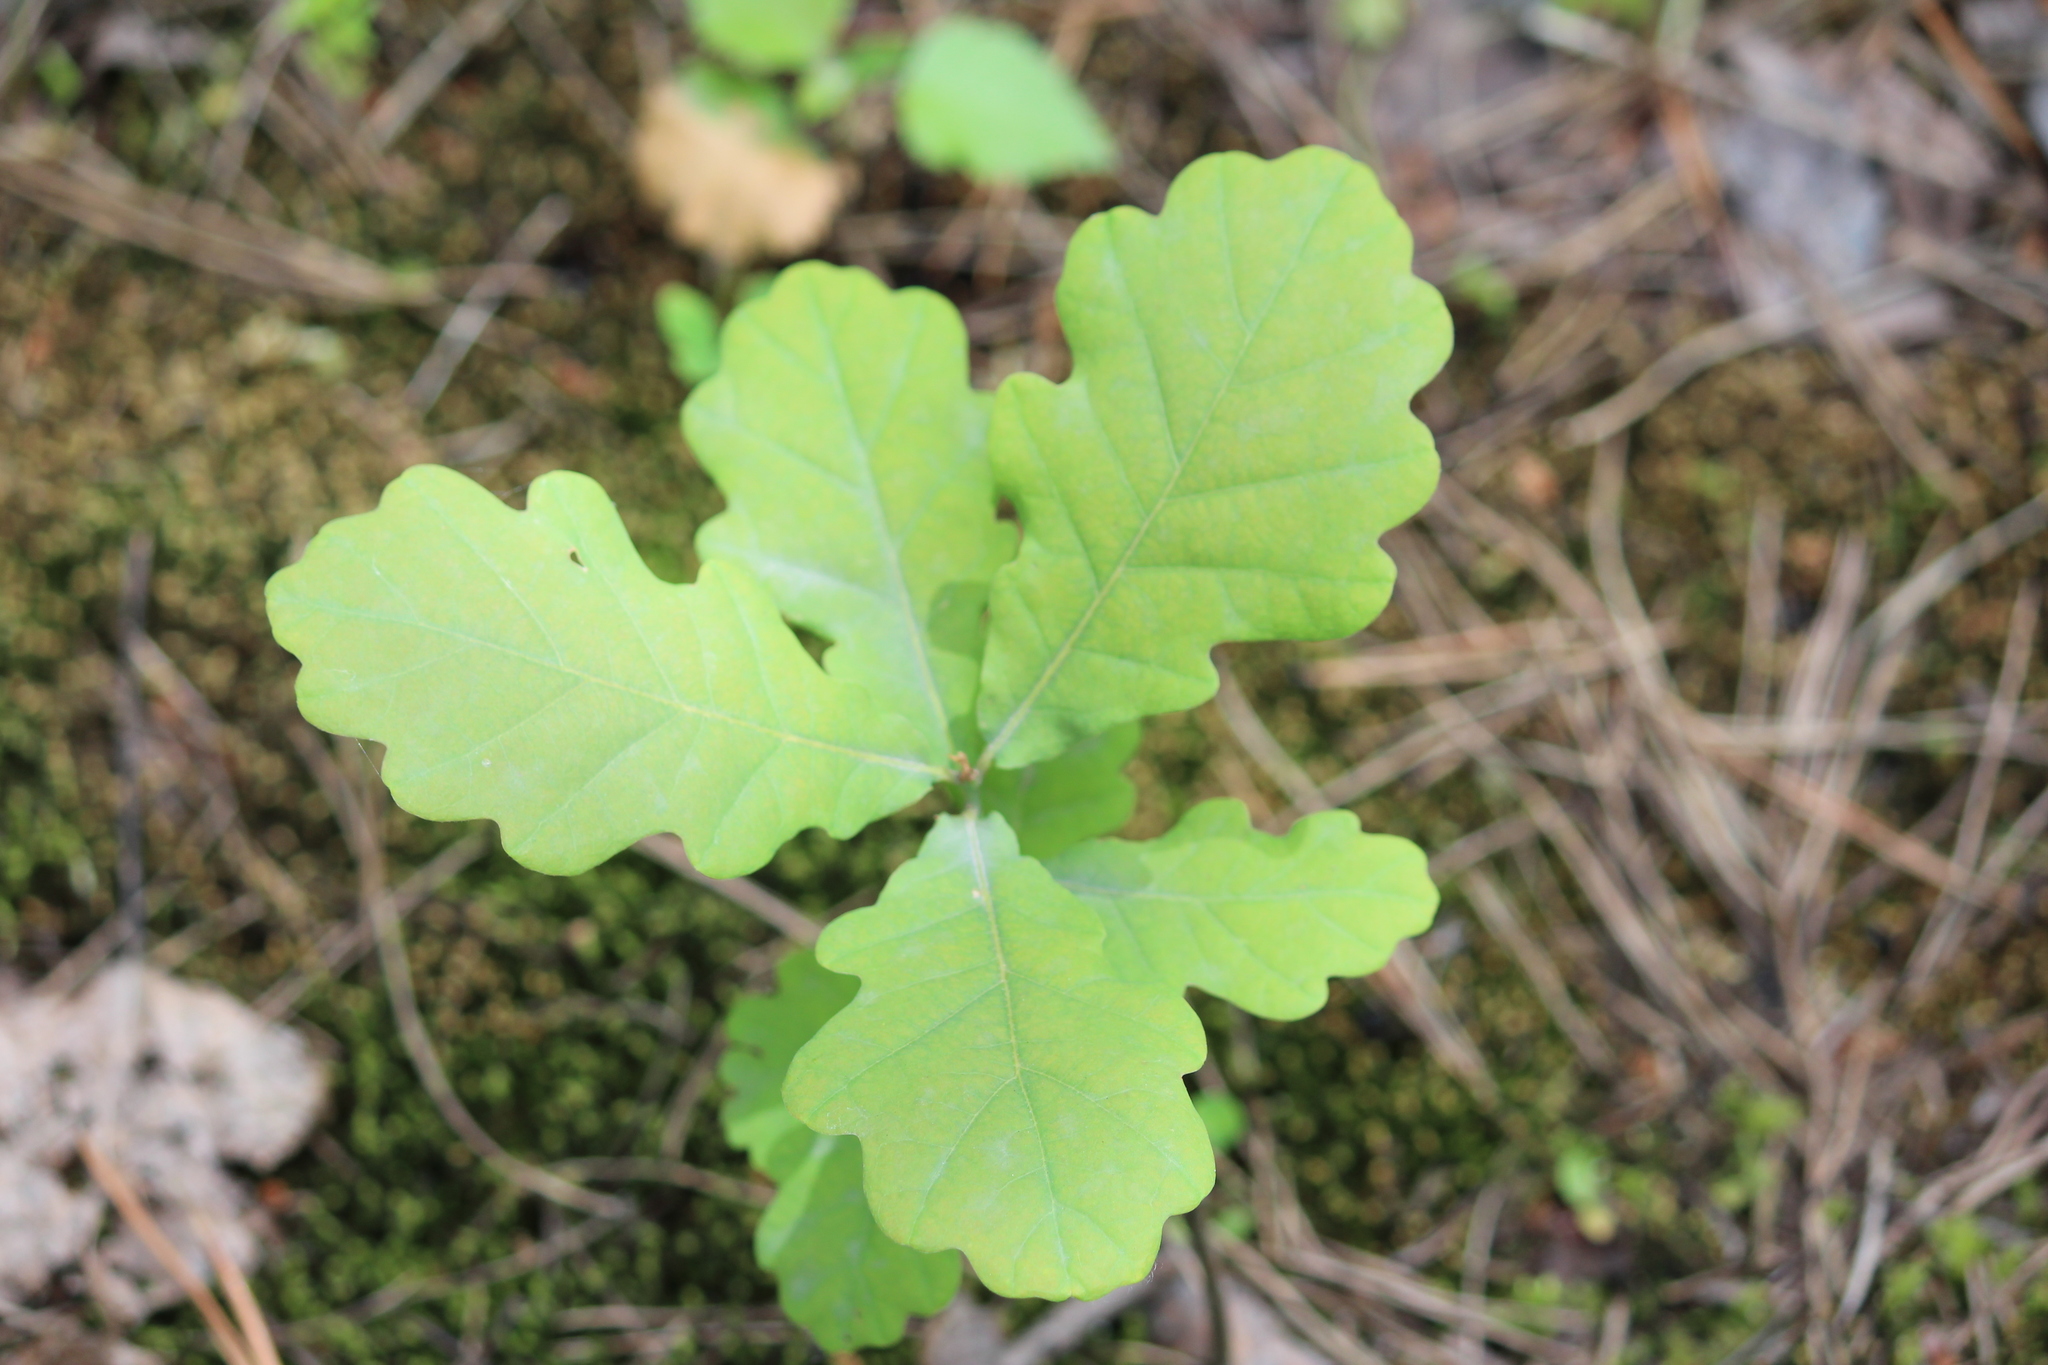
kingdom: Plantae
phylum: Tracheophyta
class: Magnoliopsida
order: Fagales
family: Fagaceae
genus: Quercus
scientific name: Quercus robur
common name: Pedunculate oak
